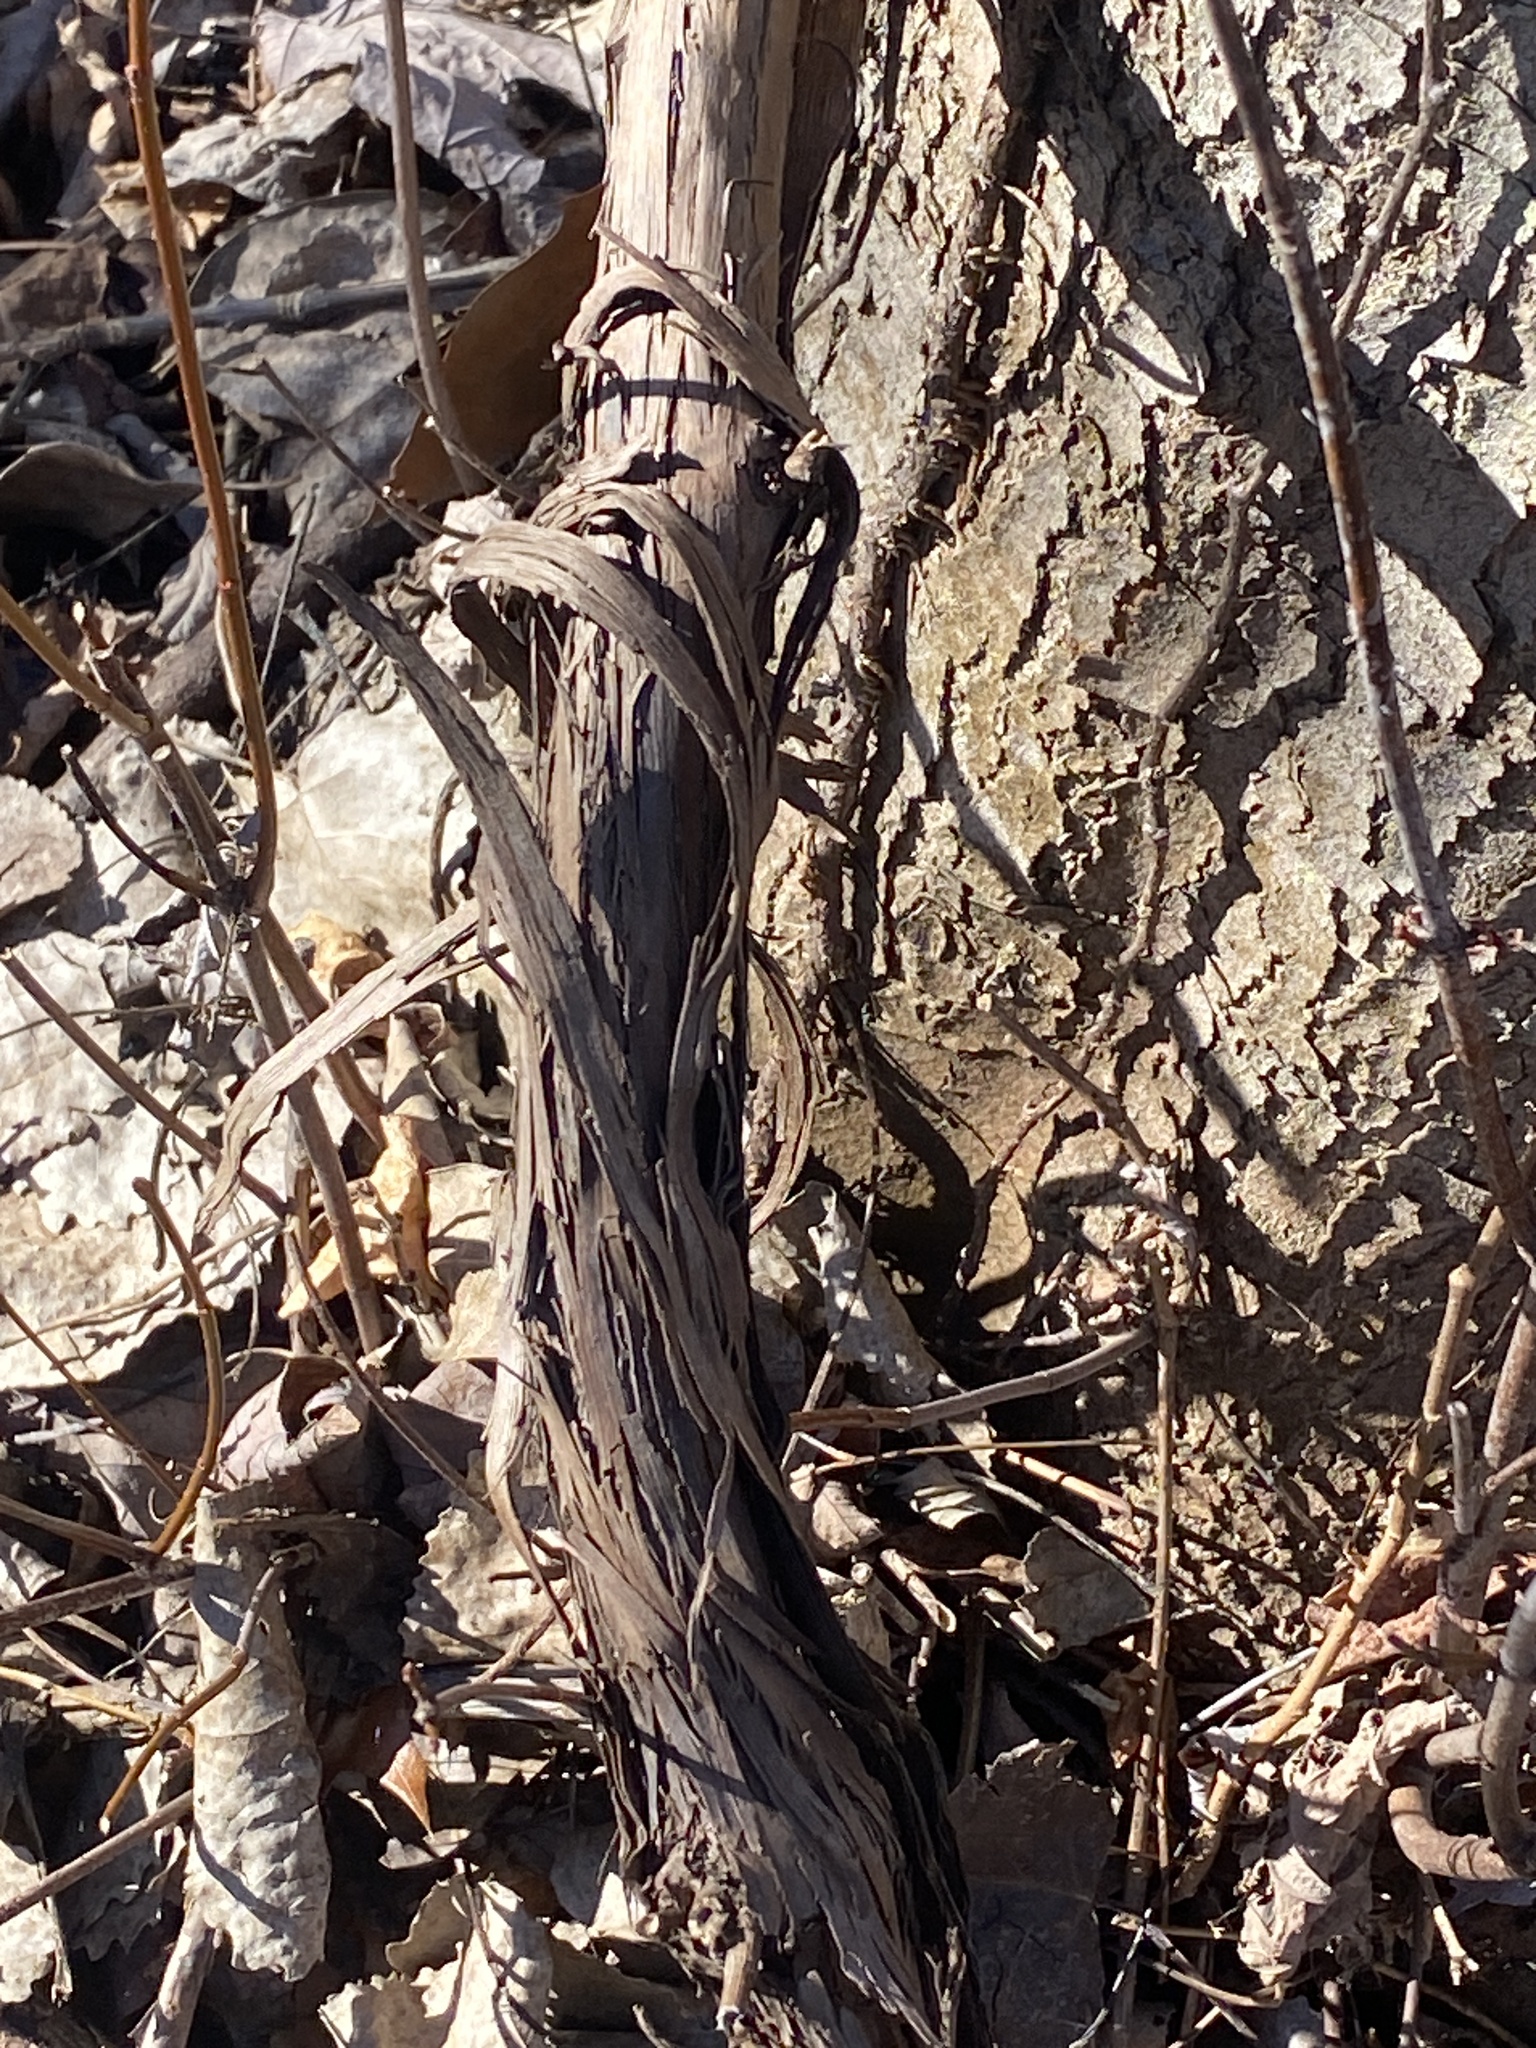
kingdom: Plantae
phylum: Tracheophyta
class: Magnoliopsida
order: Vitales
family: Vitaceae
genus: Vitis
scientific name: Vitis
